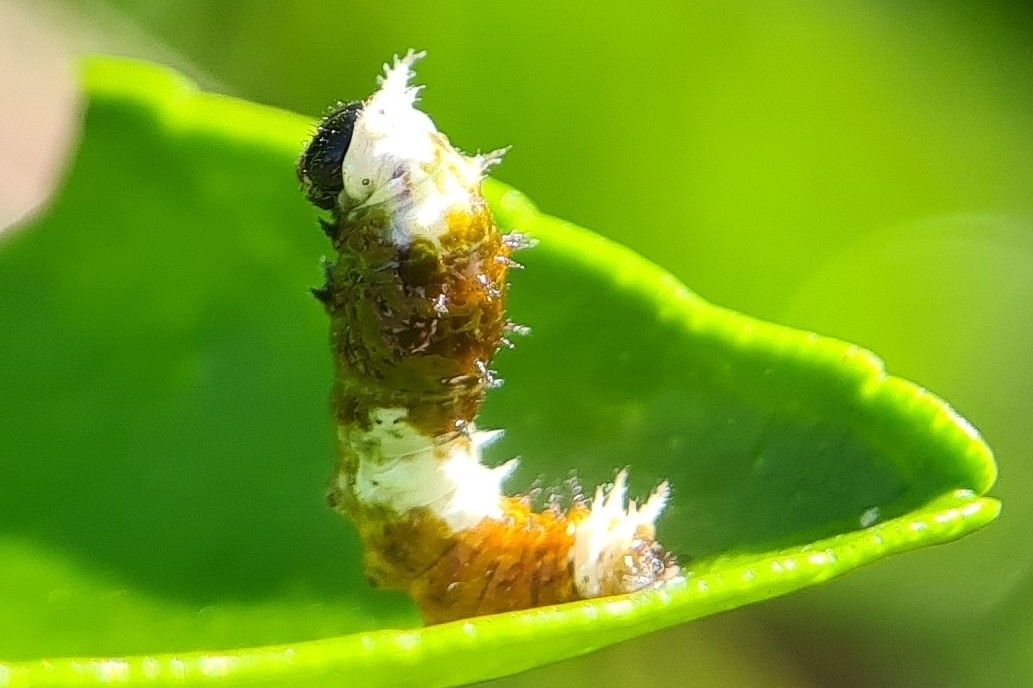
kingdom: Animalia
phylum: Arthropoda
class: Insecta
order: Lepidoptera
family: Papilionidae
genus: Papilio
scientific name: Papilio aegeus
